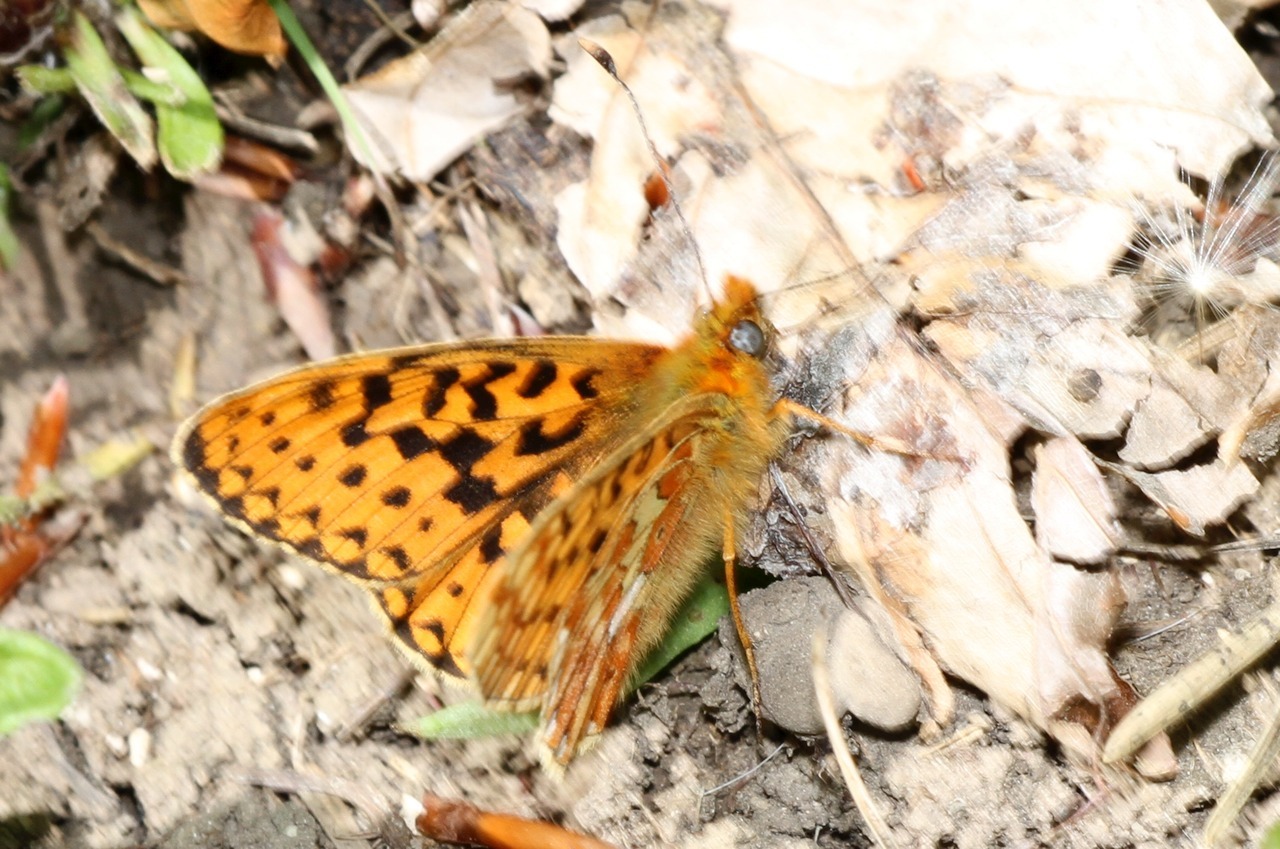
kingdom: Animalia
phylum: Arthropoda
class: Insecta
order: Lepidoptera
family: Nymphalidae
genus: Clossiana
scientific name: Clossiana euphrosyne
